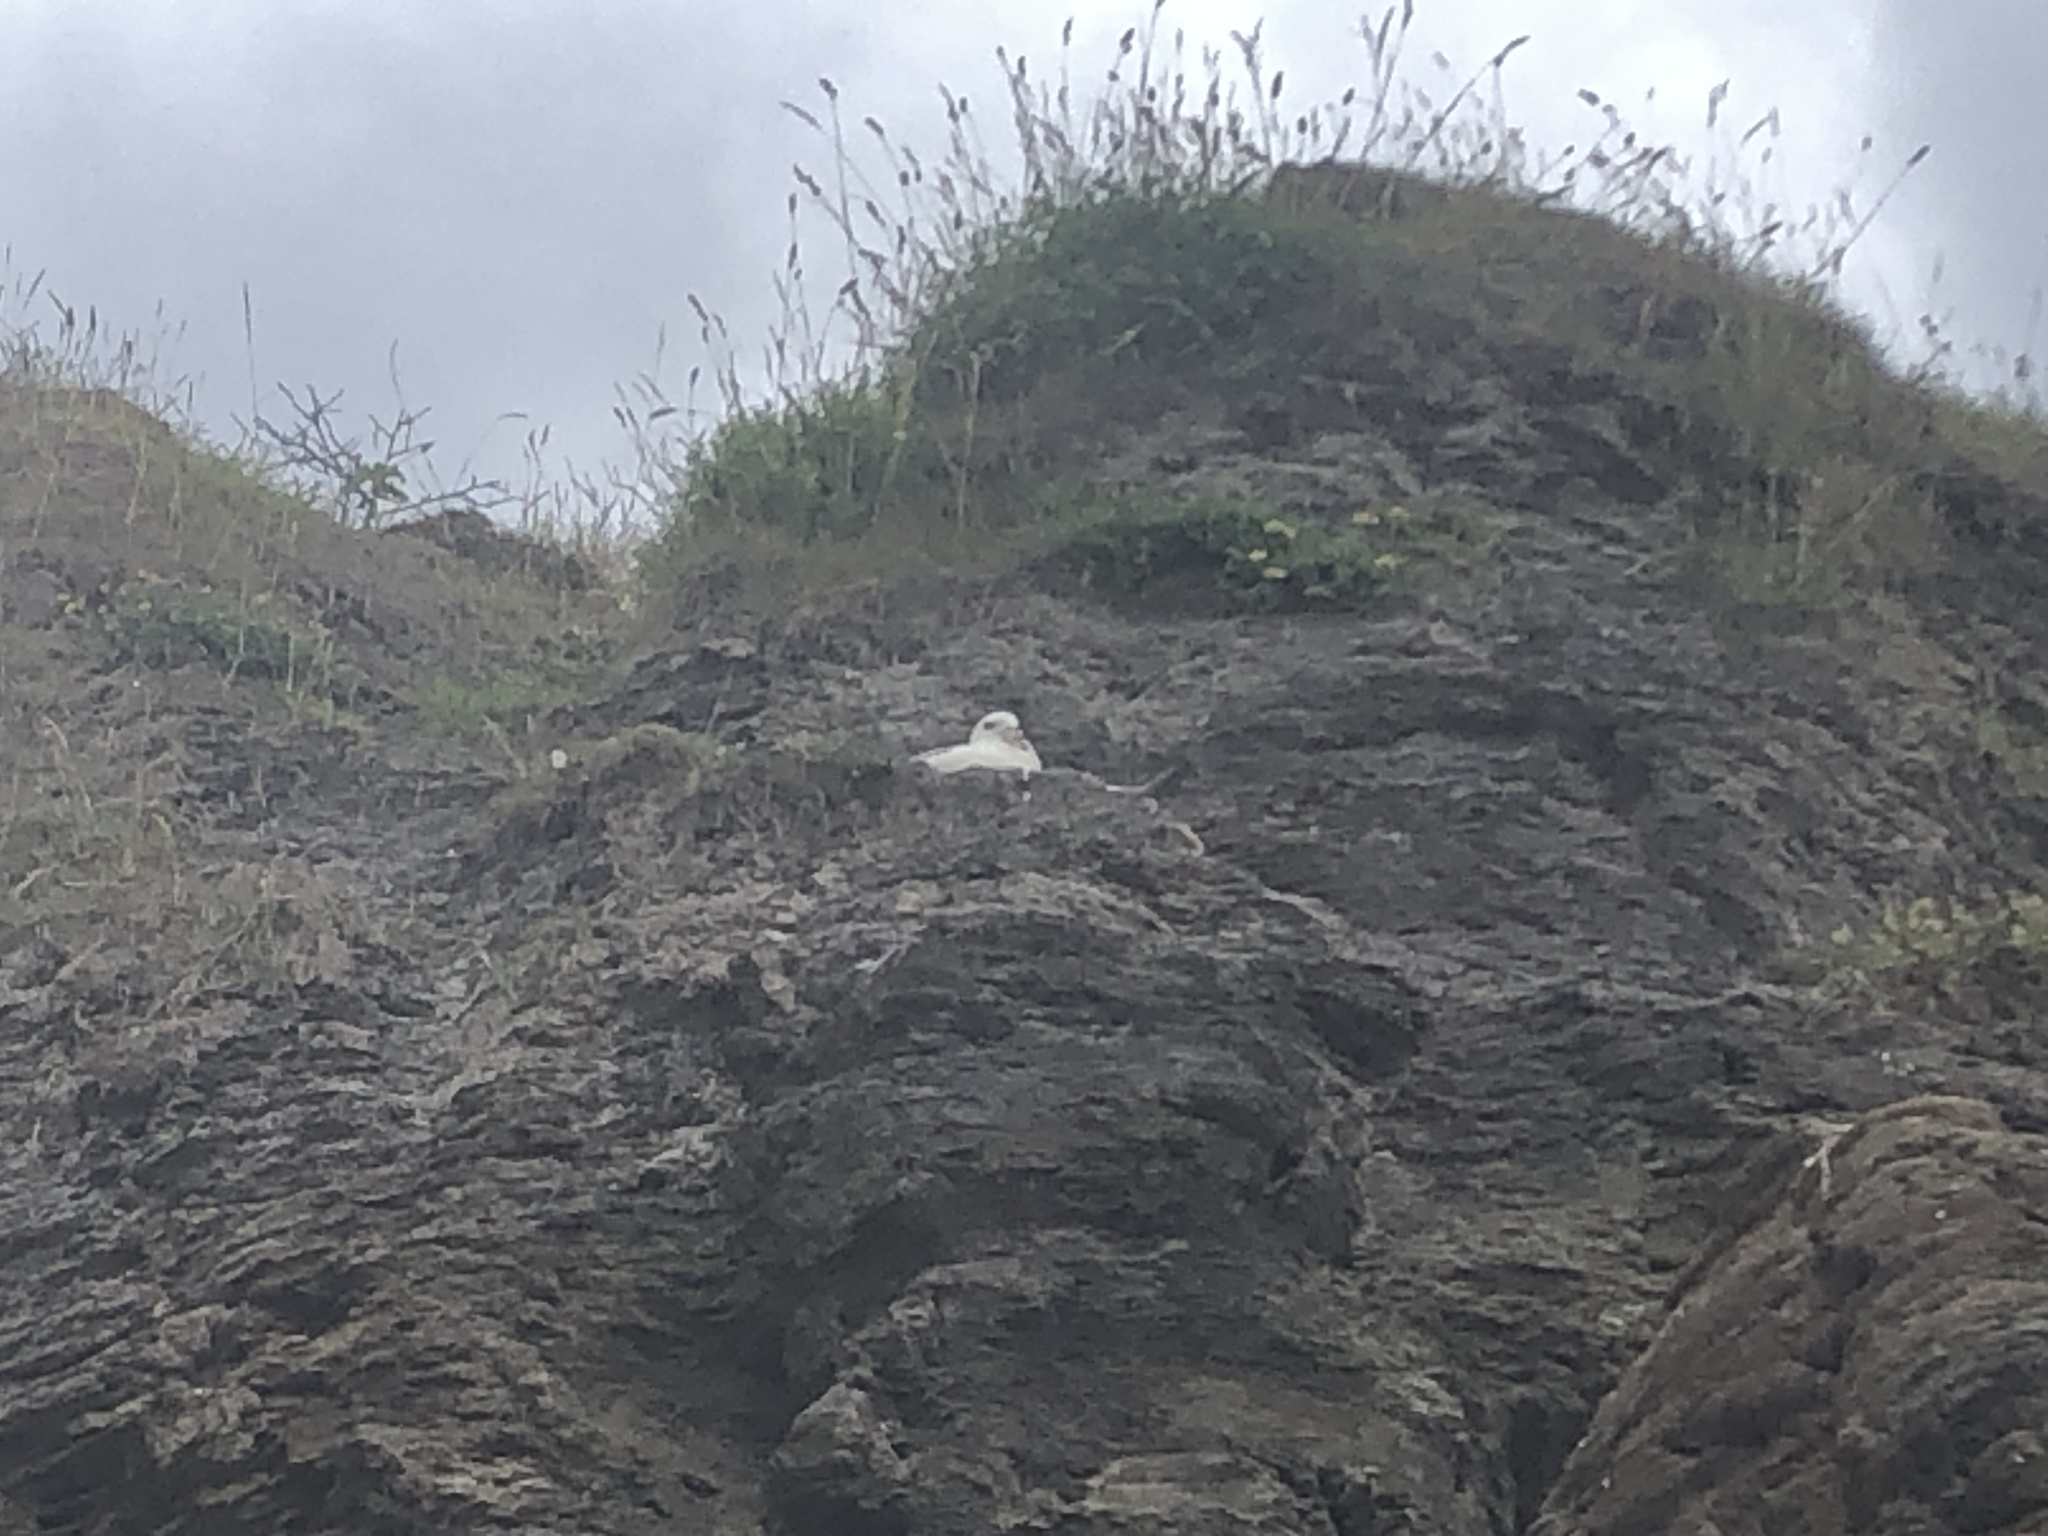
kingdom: Animalia
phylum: Chordata
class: Aves
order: Procellariiformes
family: Procellariidae
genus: Fulmarus
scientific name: Fulmarus glacialis
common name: Northern fulmar
